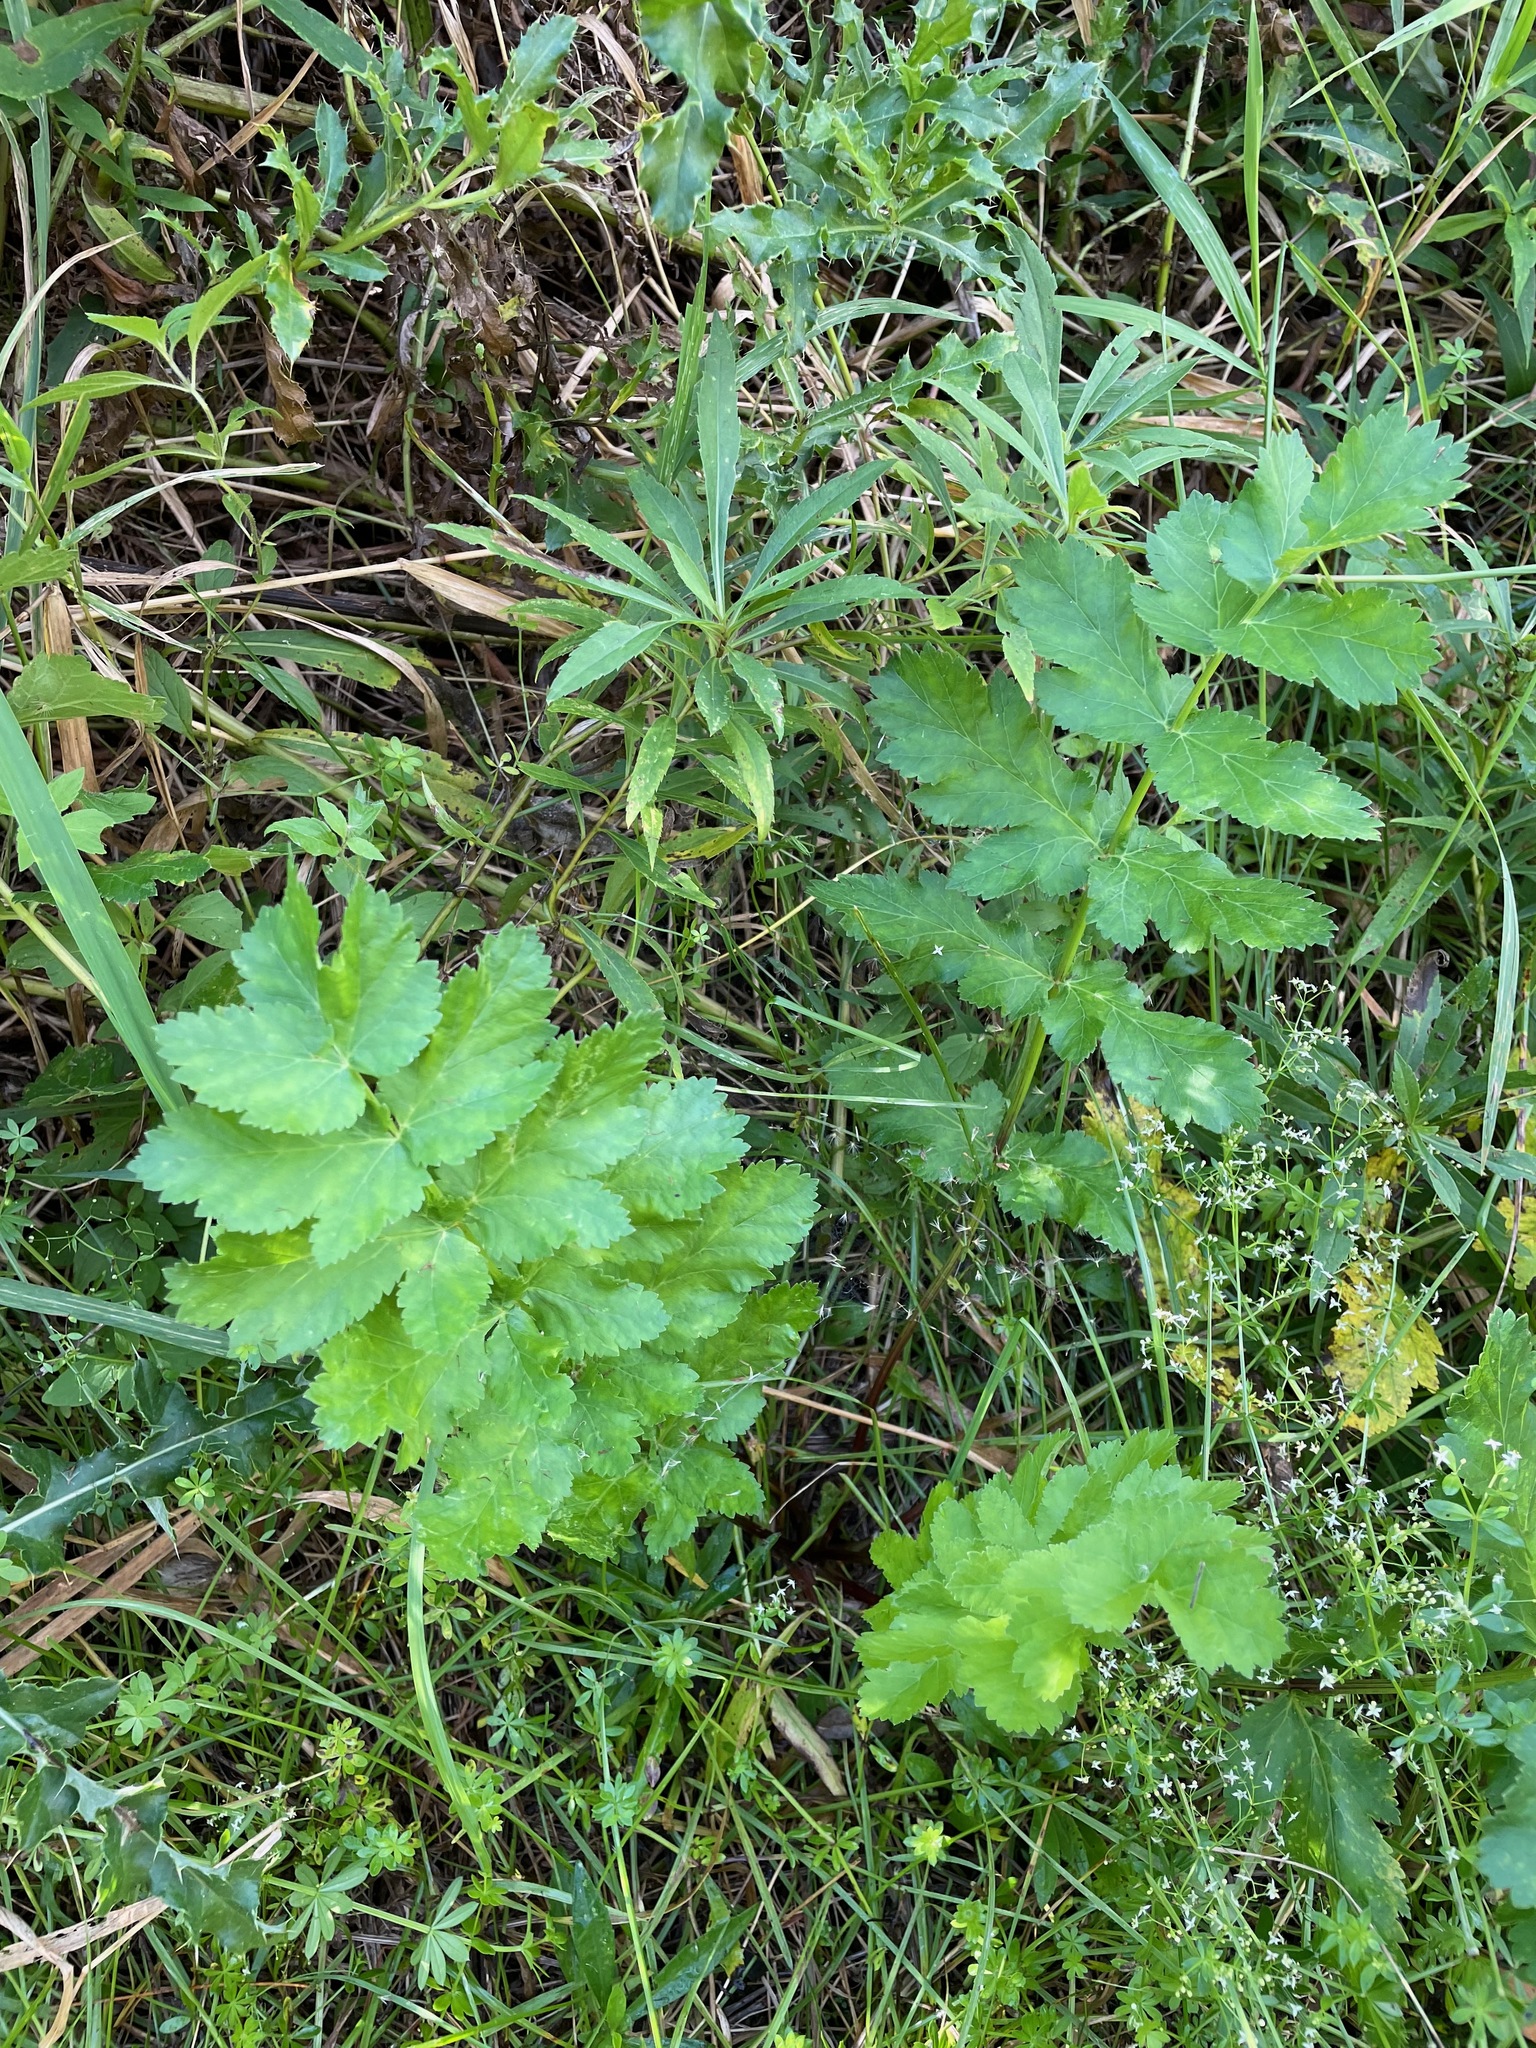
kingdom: Plantae
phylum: Tracheophyta
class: Magnoliopsida
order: Apiales
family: Apiaceae
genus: Pastinaca
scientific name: Pastinaca sativa
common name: Wild parsnip
